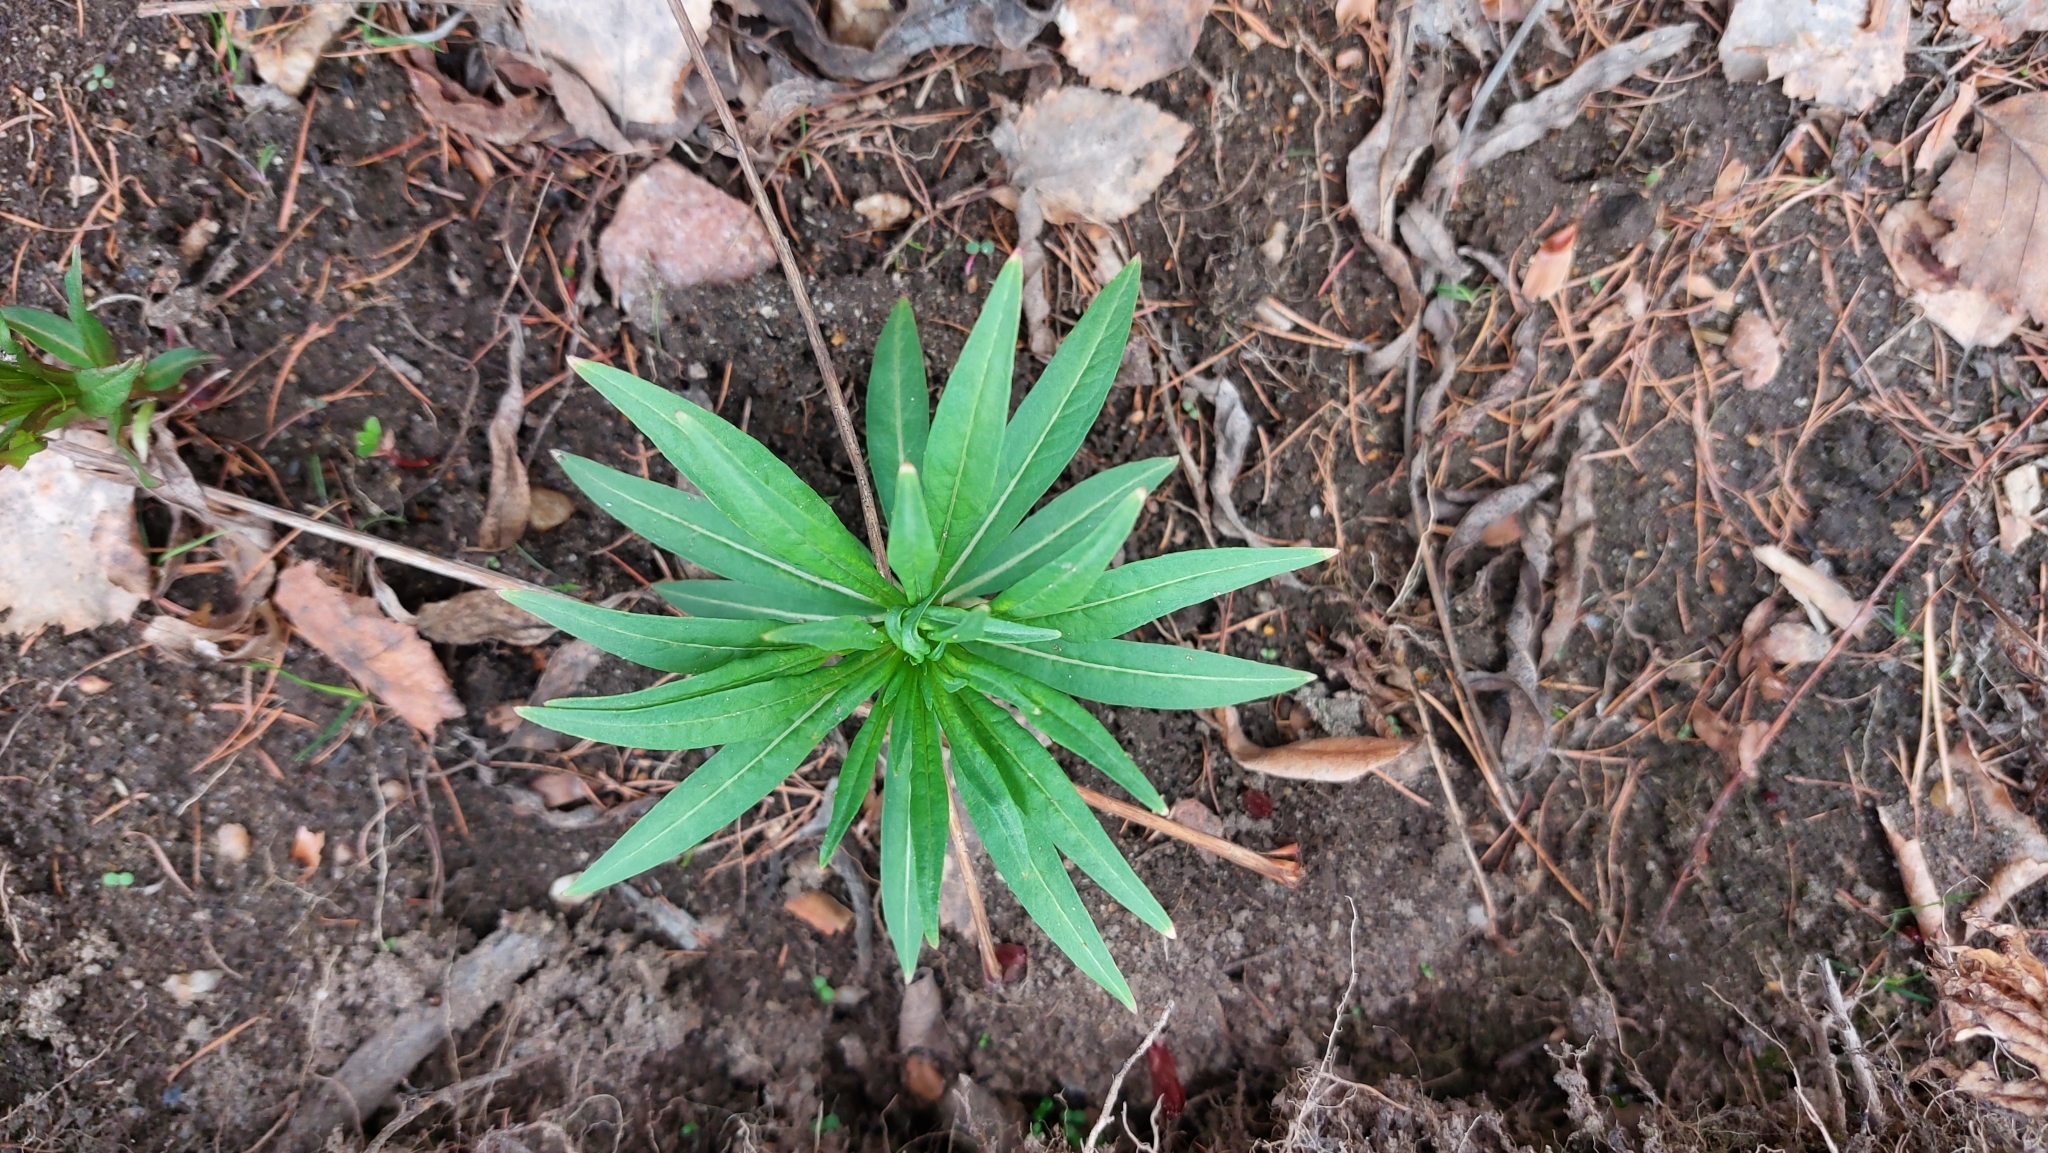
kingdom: Plantae
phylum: Tracheophyta
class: Magnoliopsida
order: Myrtales
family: Onagraceae
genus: Chamaenerion
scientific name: Chamaenerion angustifolium
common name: Fireweed
